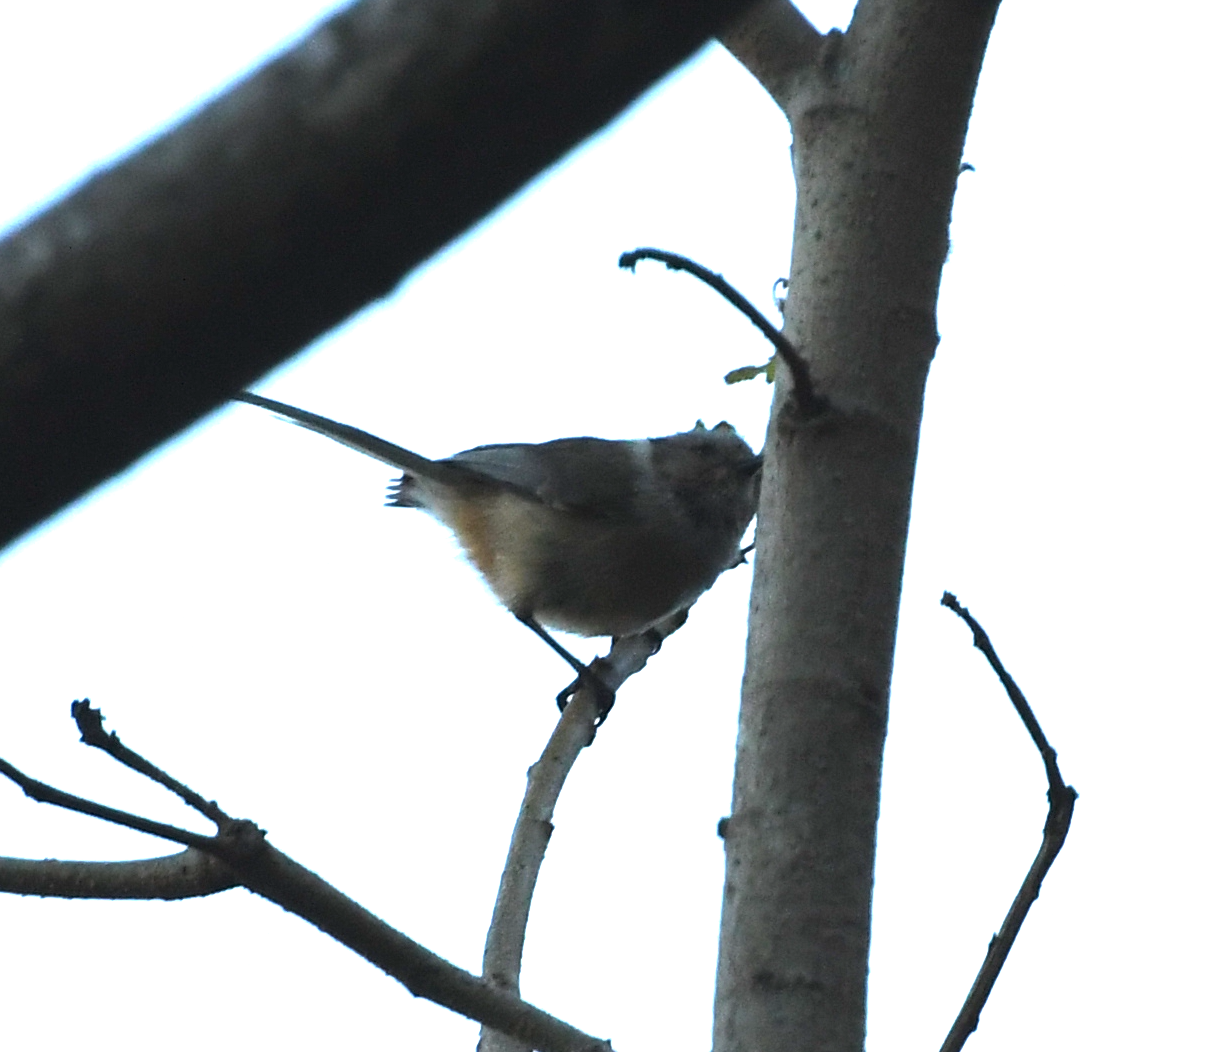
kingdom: Animalia
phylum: Chordata
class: Aves
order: Passeriformes
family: Aegithalidae
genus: Psaltriparus
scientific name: Psaltriparus minimus
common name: American bushtit
